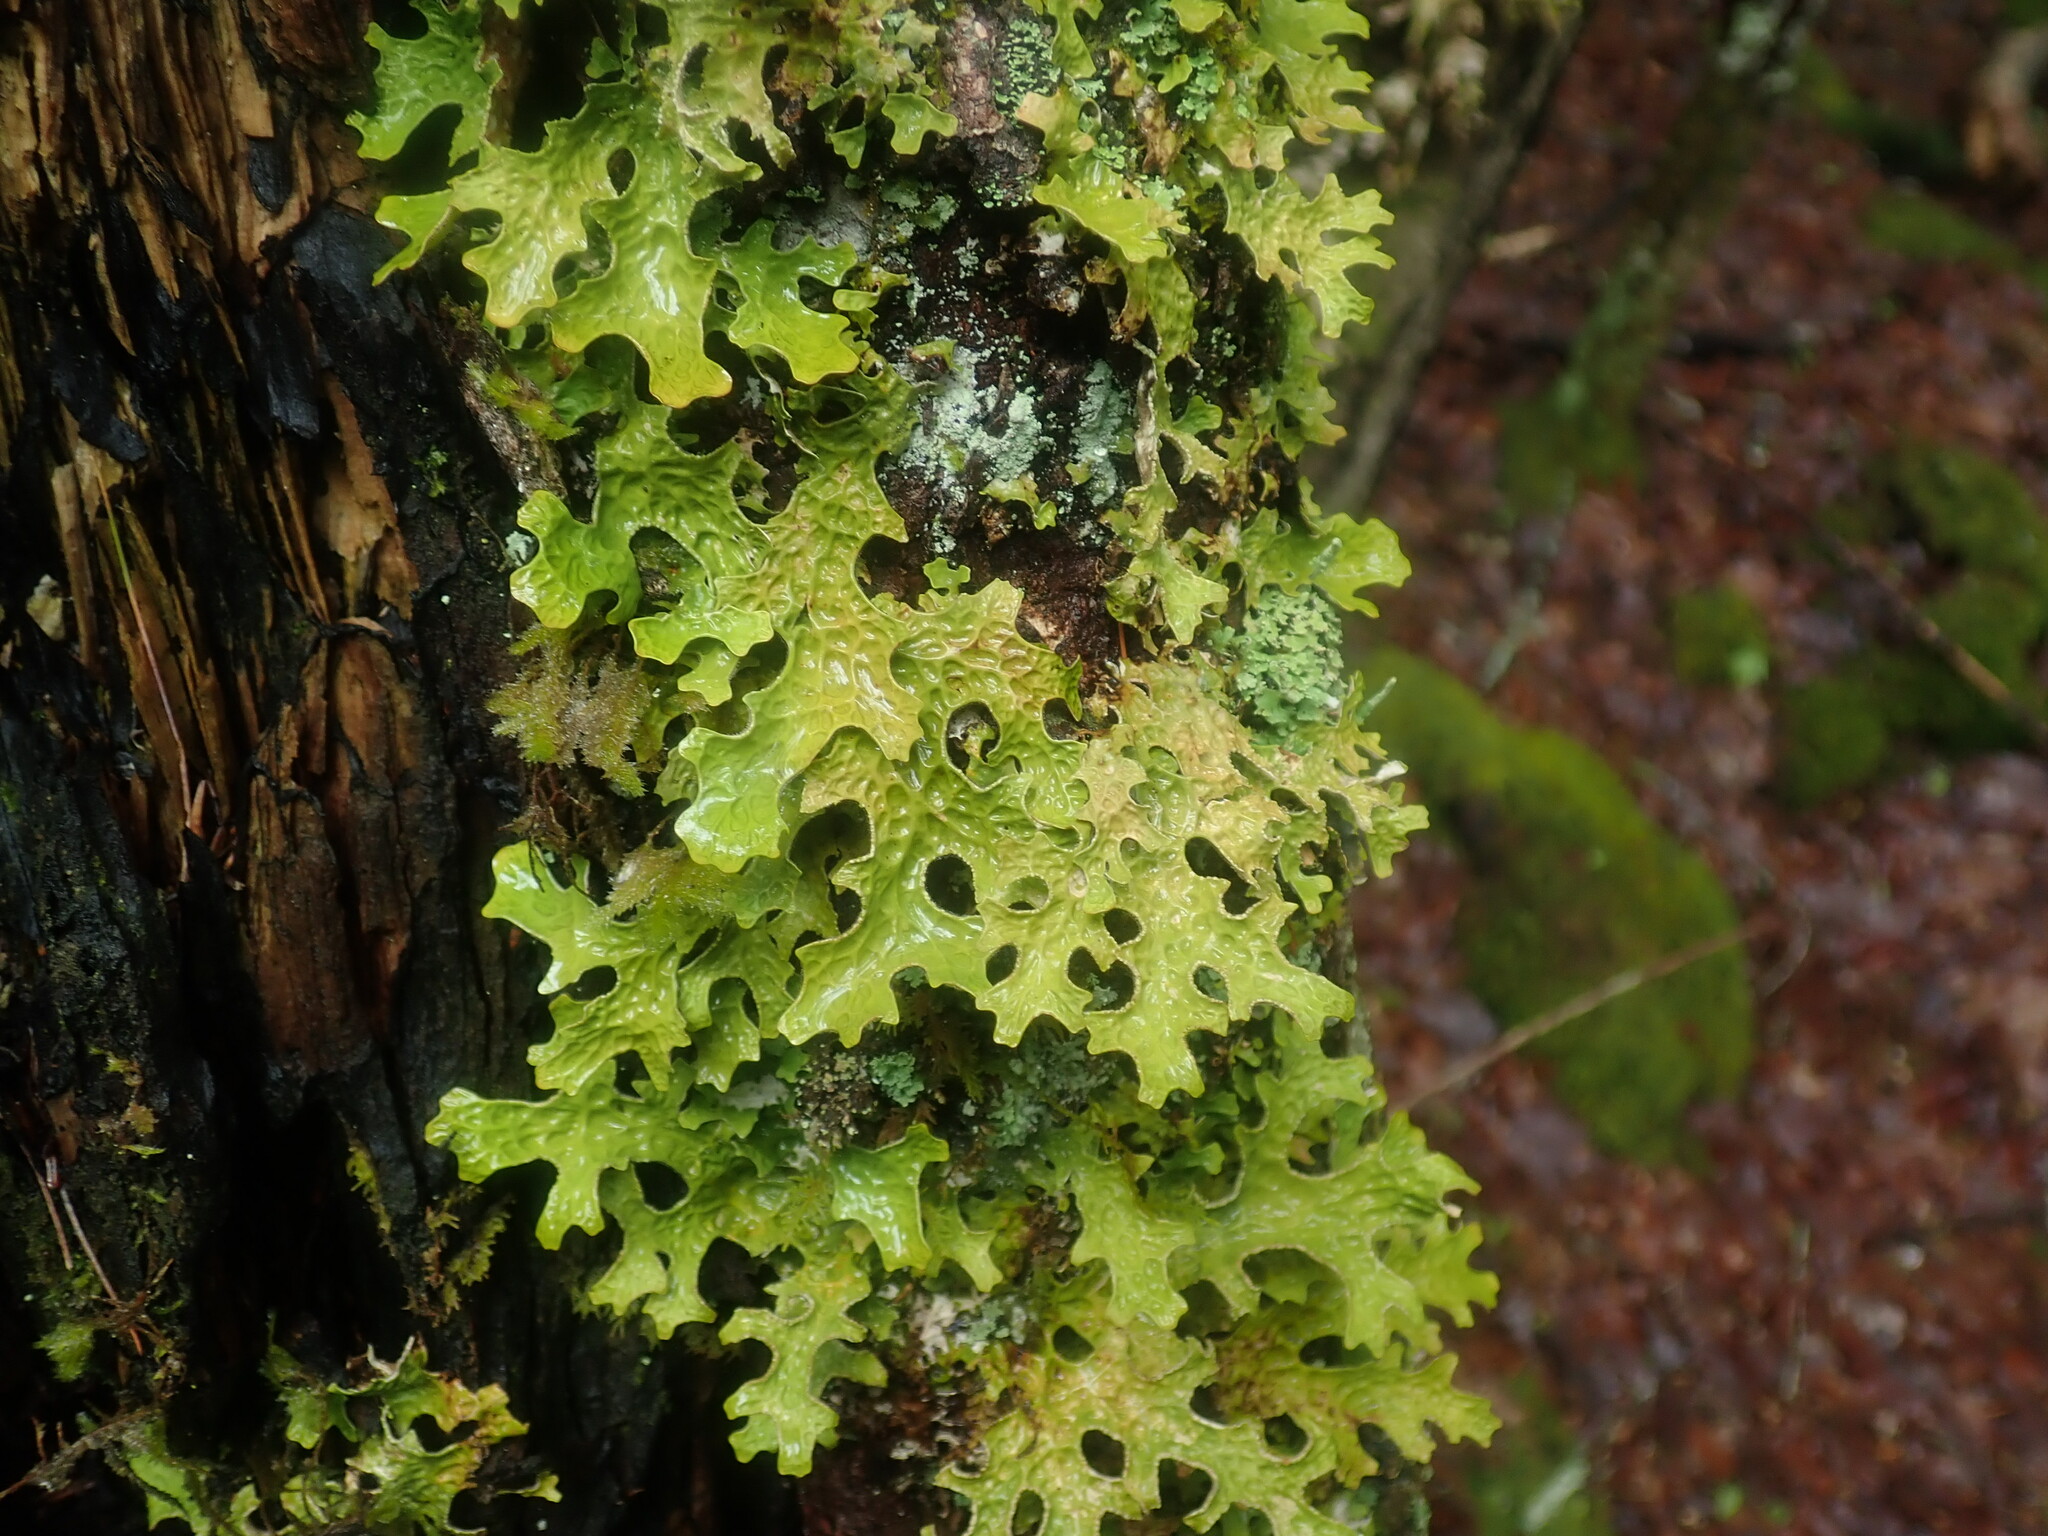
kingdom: Fungi
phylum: Ascomycota
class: Lecanoromycetes
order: Peltigerales
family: Lobariaceae
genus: Lobaria
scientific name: Lobaria pulmonaria
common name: Lungwort
